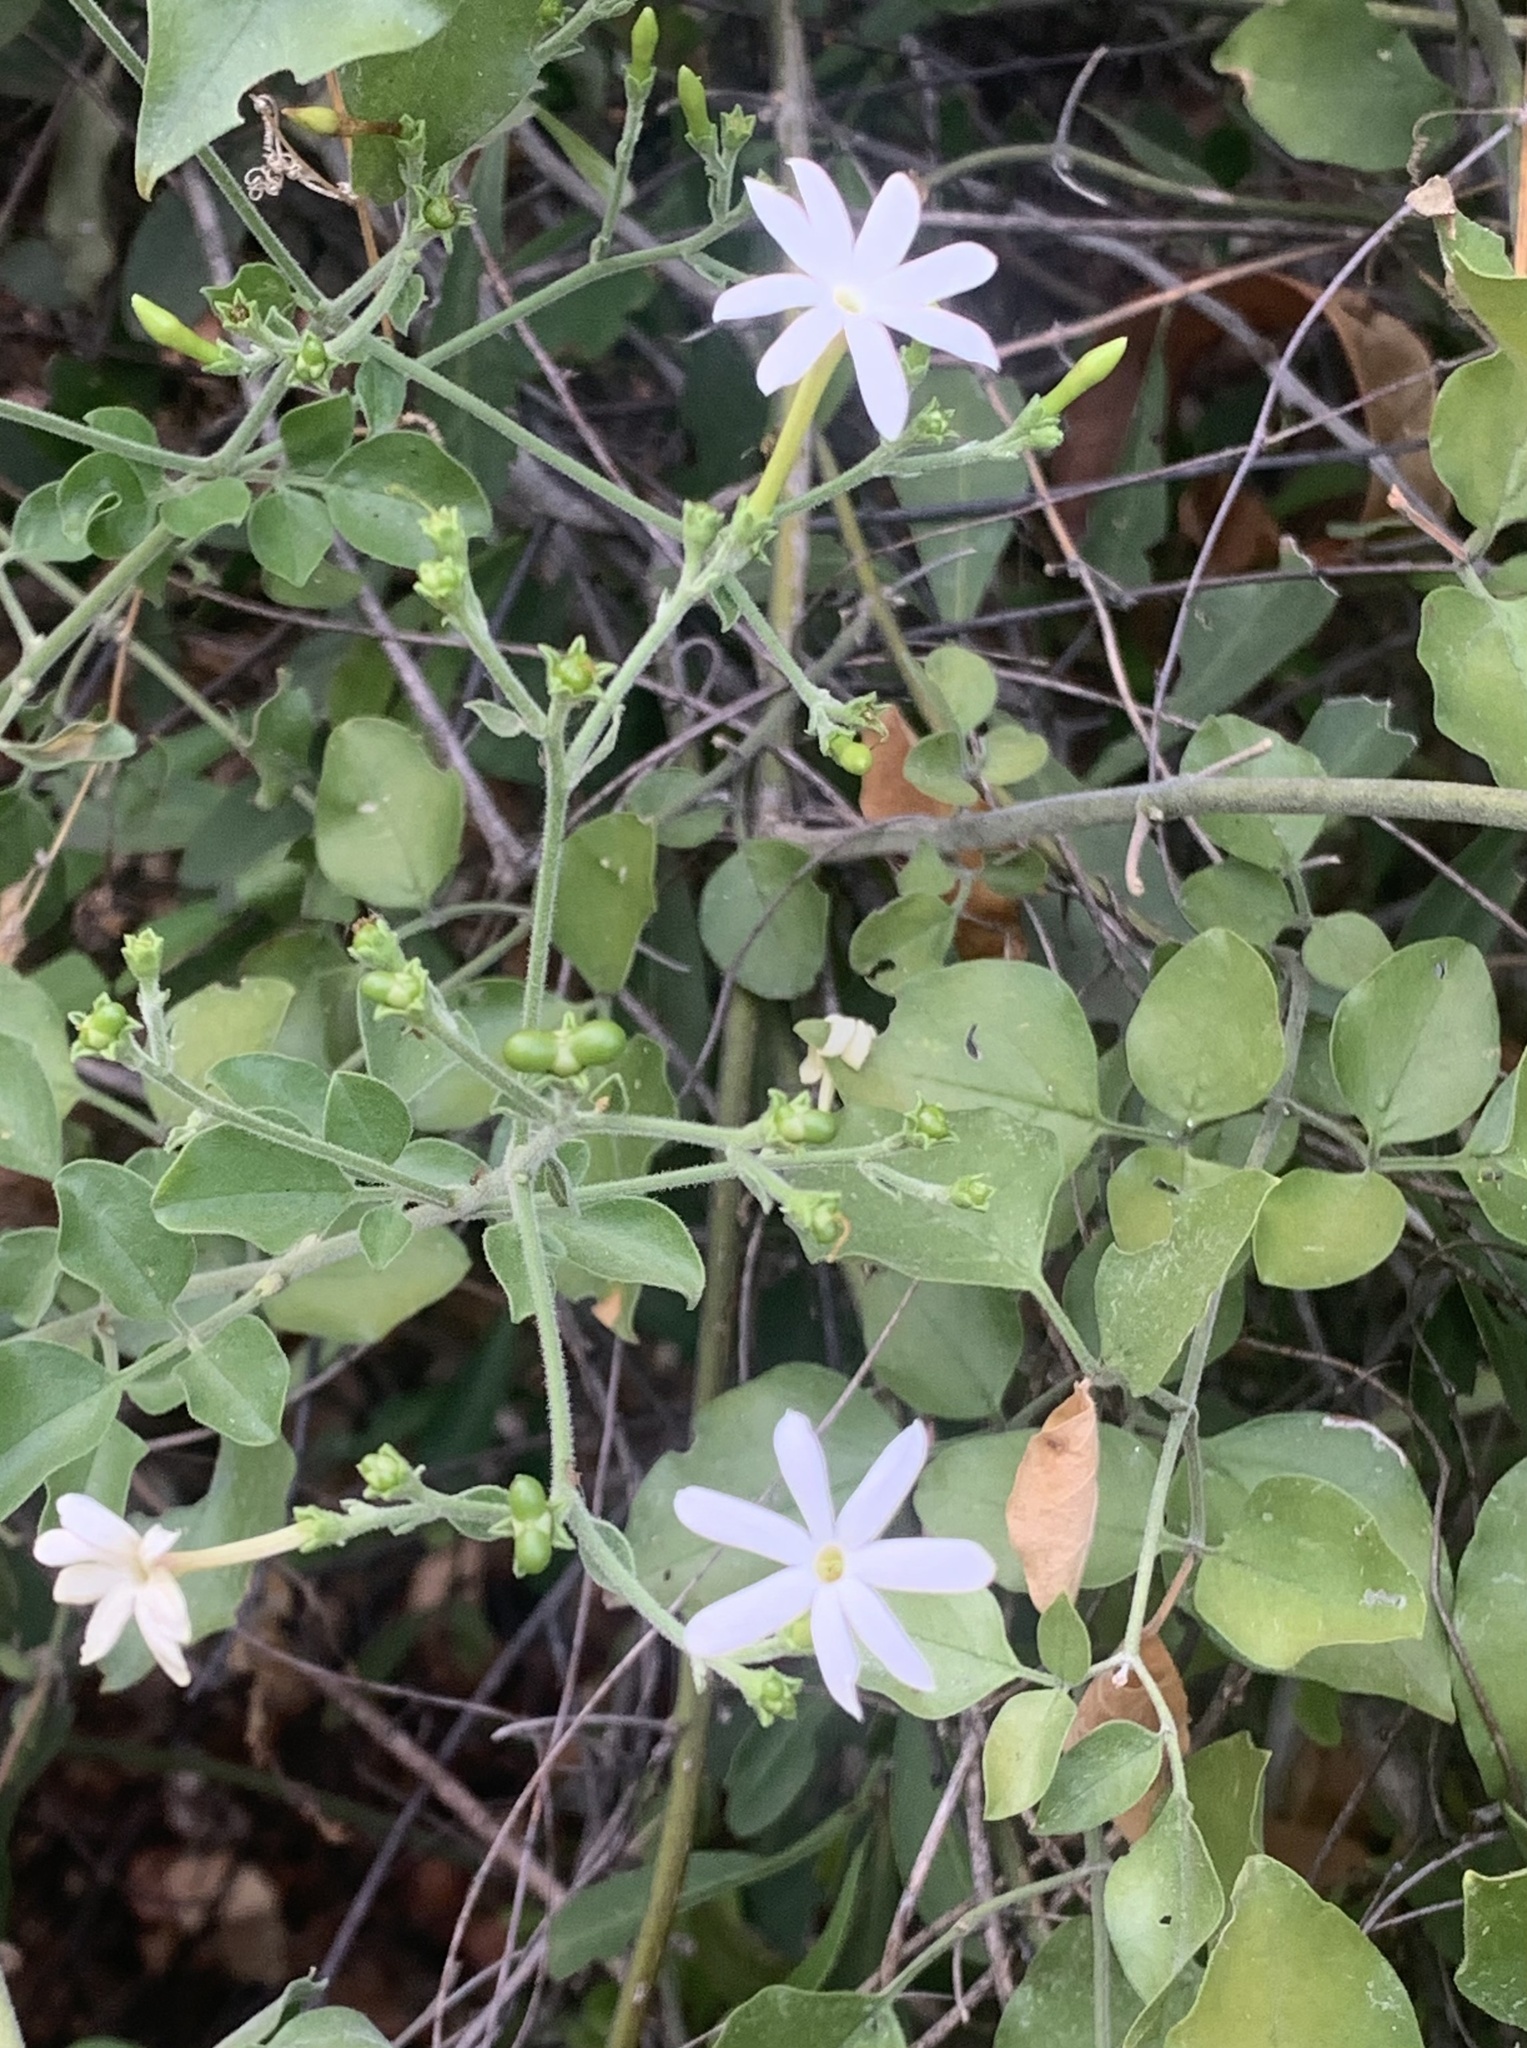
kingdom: Plantae
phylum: Tracheophyta
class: Magnoliopsida
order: Lamiales
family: Oleaceae
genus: Jasminum
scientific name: Jasminum fluminense
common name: Brazilian jasmine
